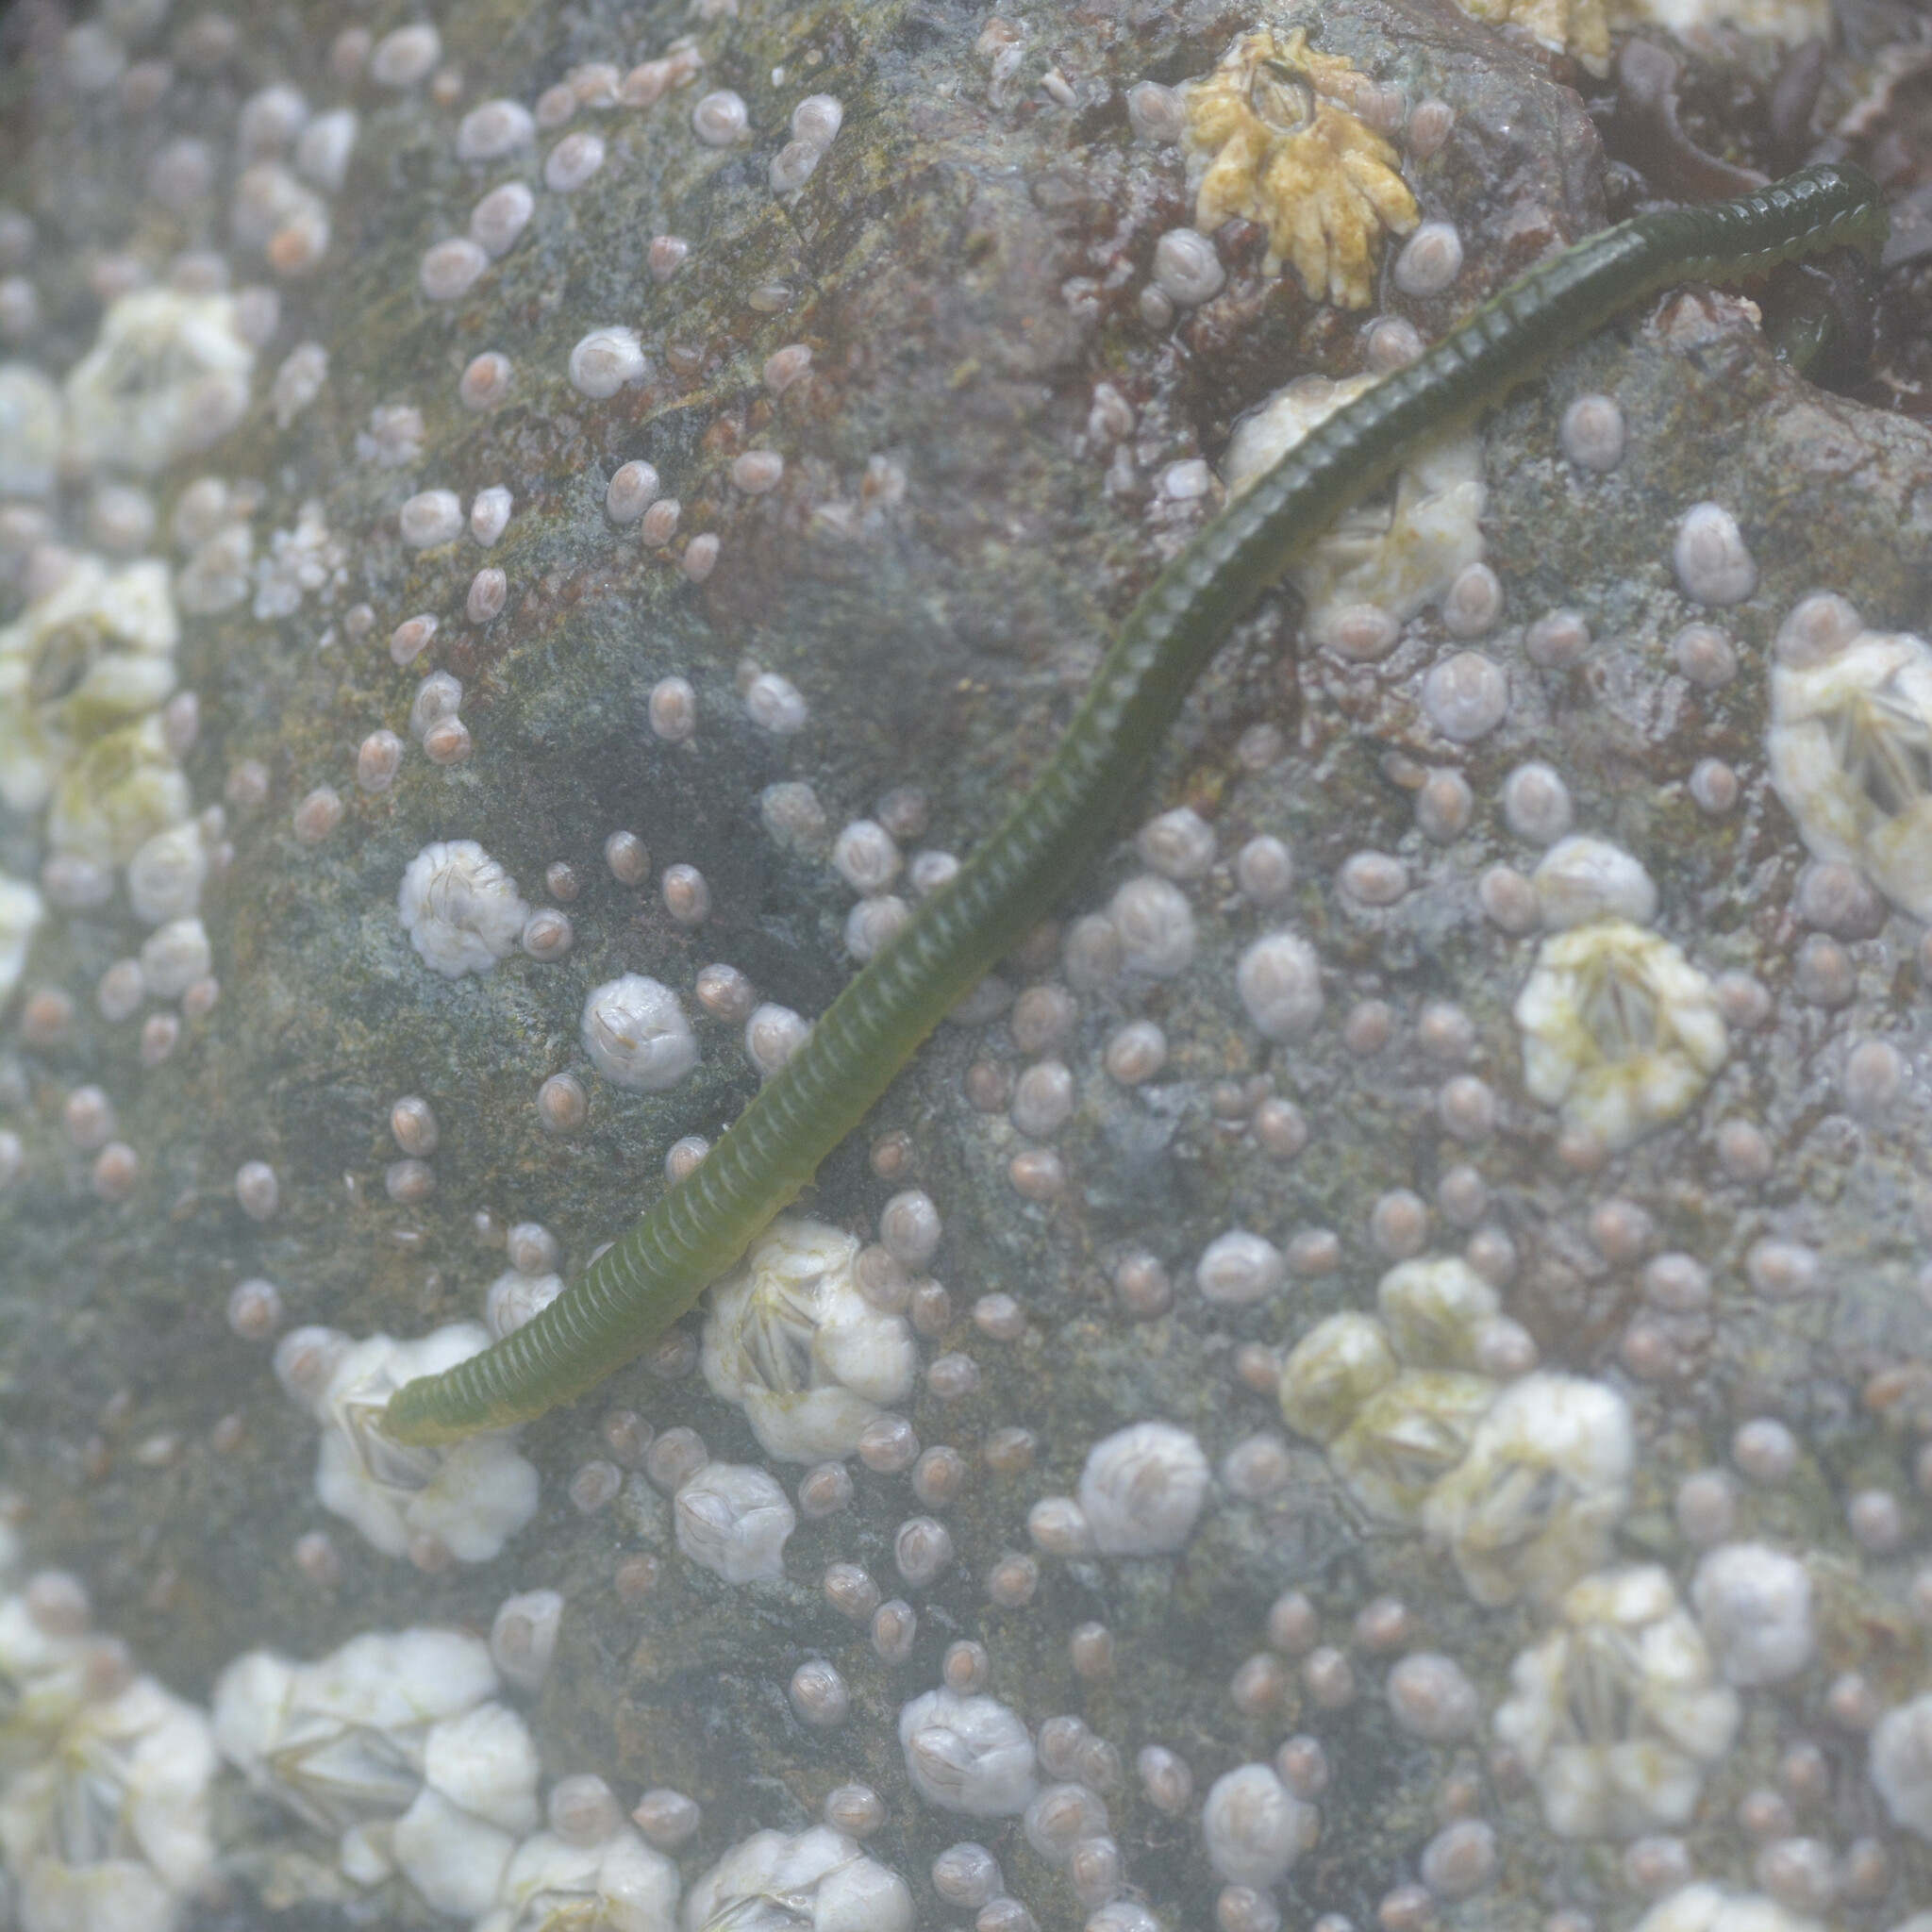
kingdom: Animalia
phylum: Annelida
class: Polychaeta
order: Phyllodocida
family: Phyllodocidae
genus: Eulalia
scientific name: Eulalia clavigera
